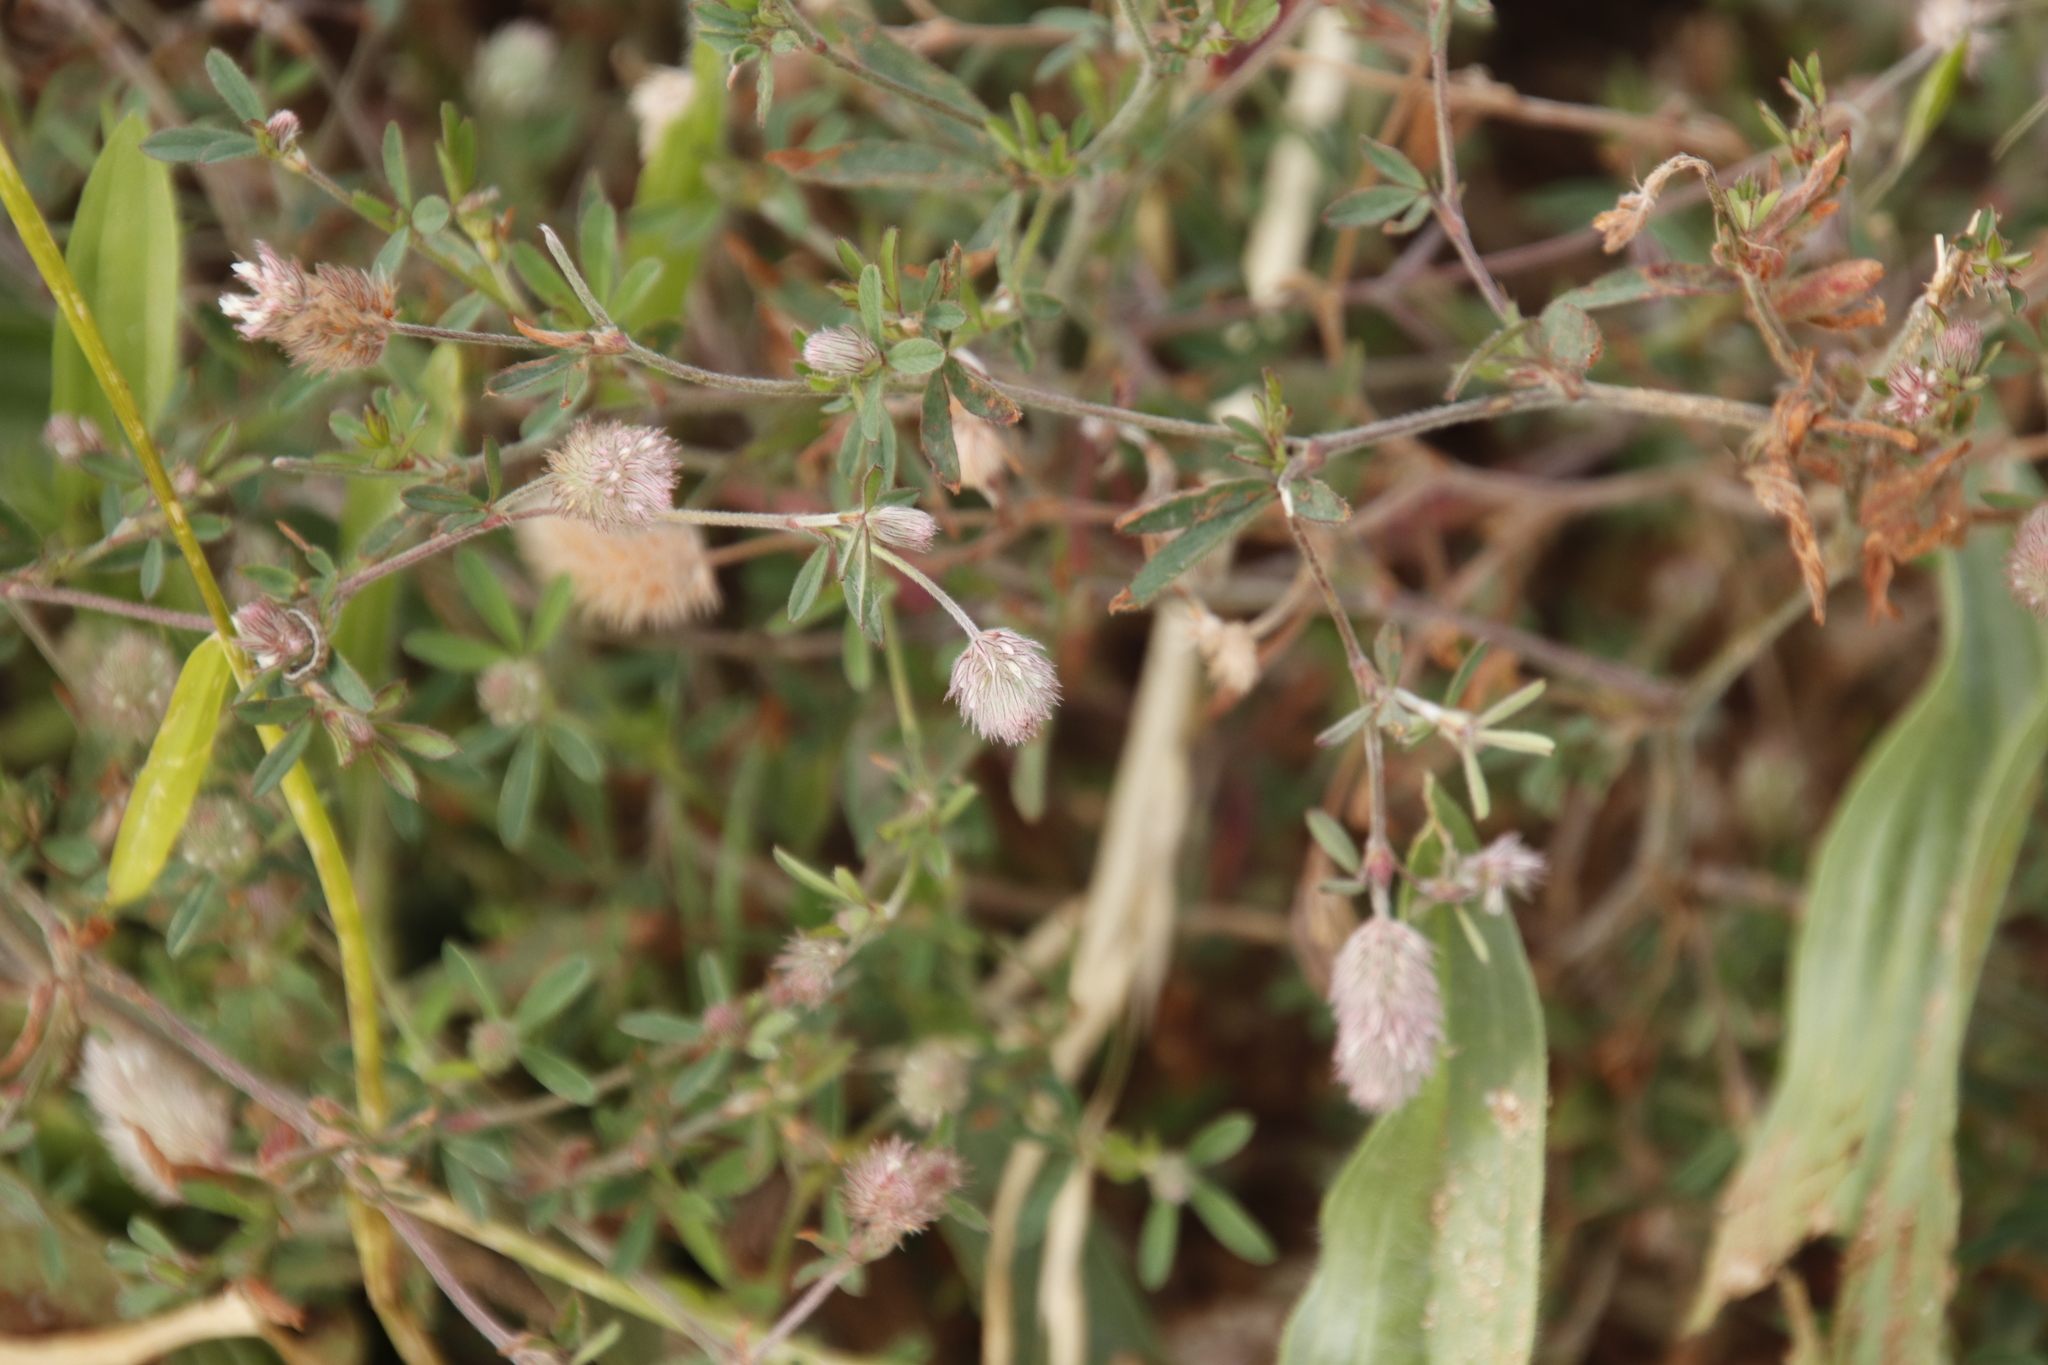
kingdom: Plantae
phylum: Tracheophyta
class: Magnoliopsida
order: Fabales
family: Fabaceae
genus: Trifolium
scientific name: Trifolium arvense
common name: Hare's-foot clover
